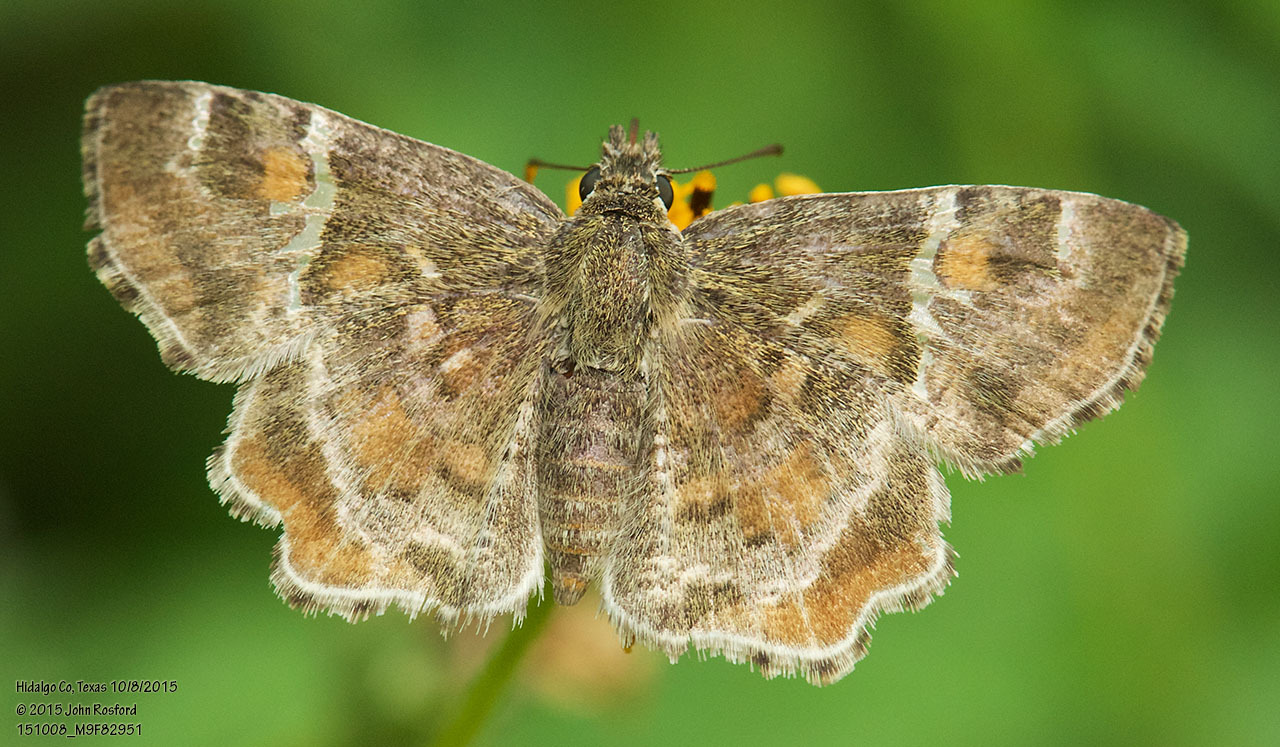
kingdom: Animalia
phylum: Arthropoda
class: Insecta
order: Lepidoptera
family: Hesperiidae
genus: Systasea
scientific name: Systasea pulverulenta
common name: Texas powdered skipper
